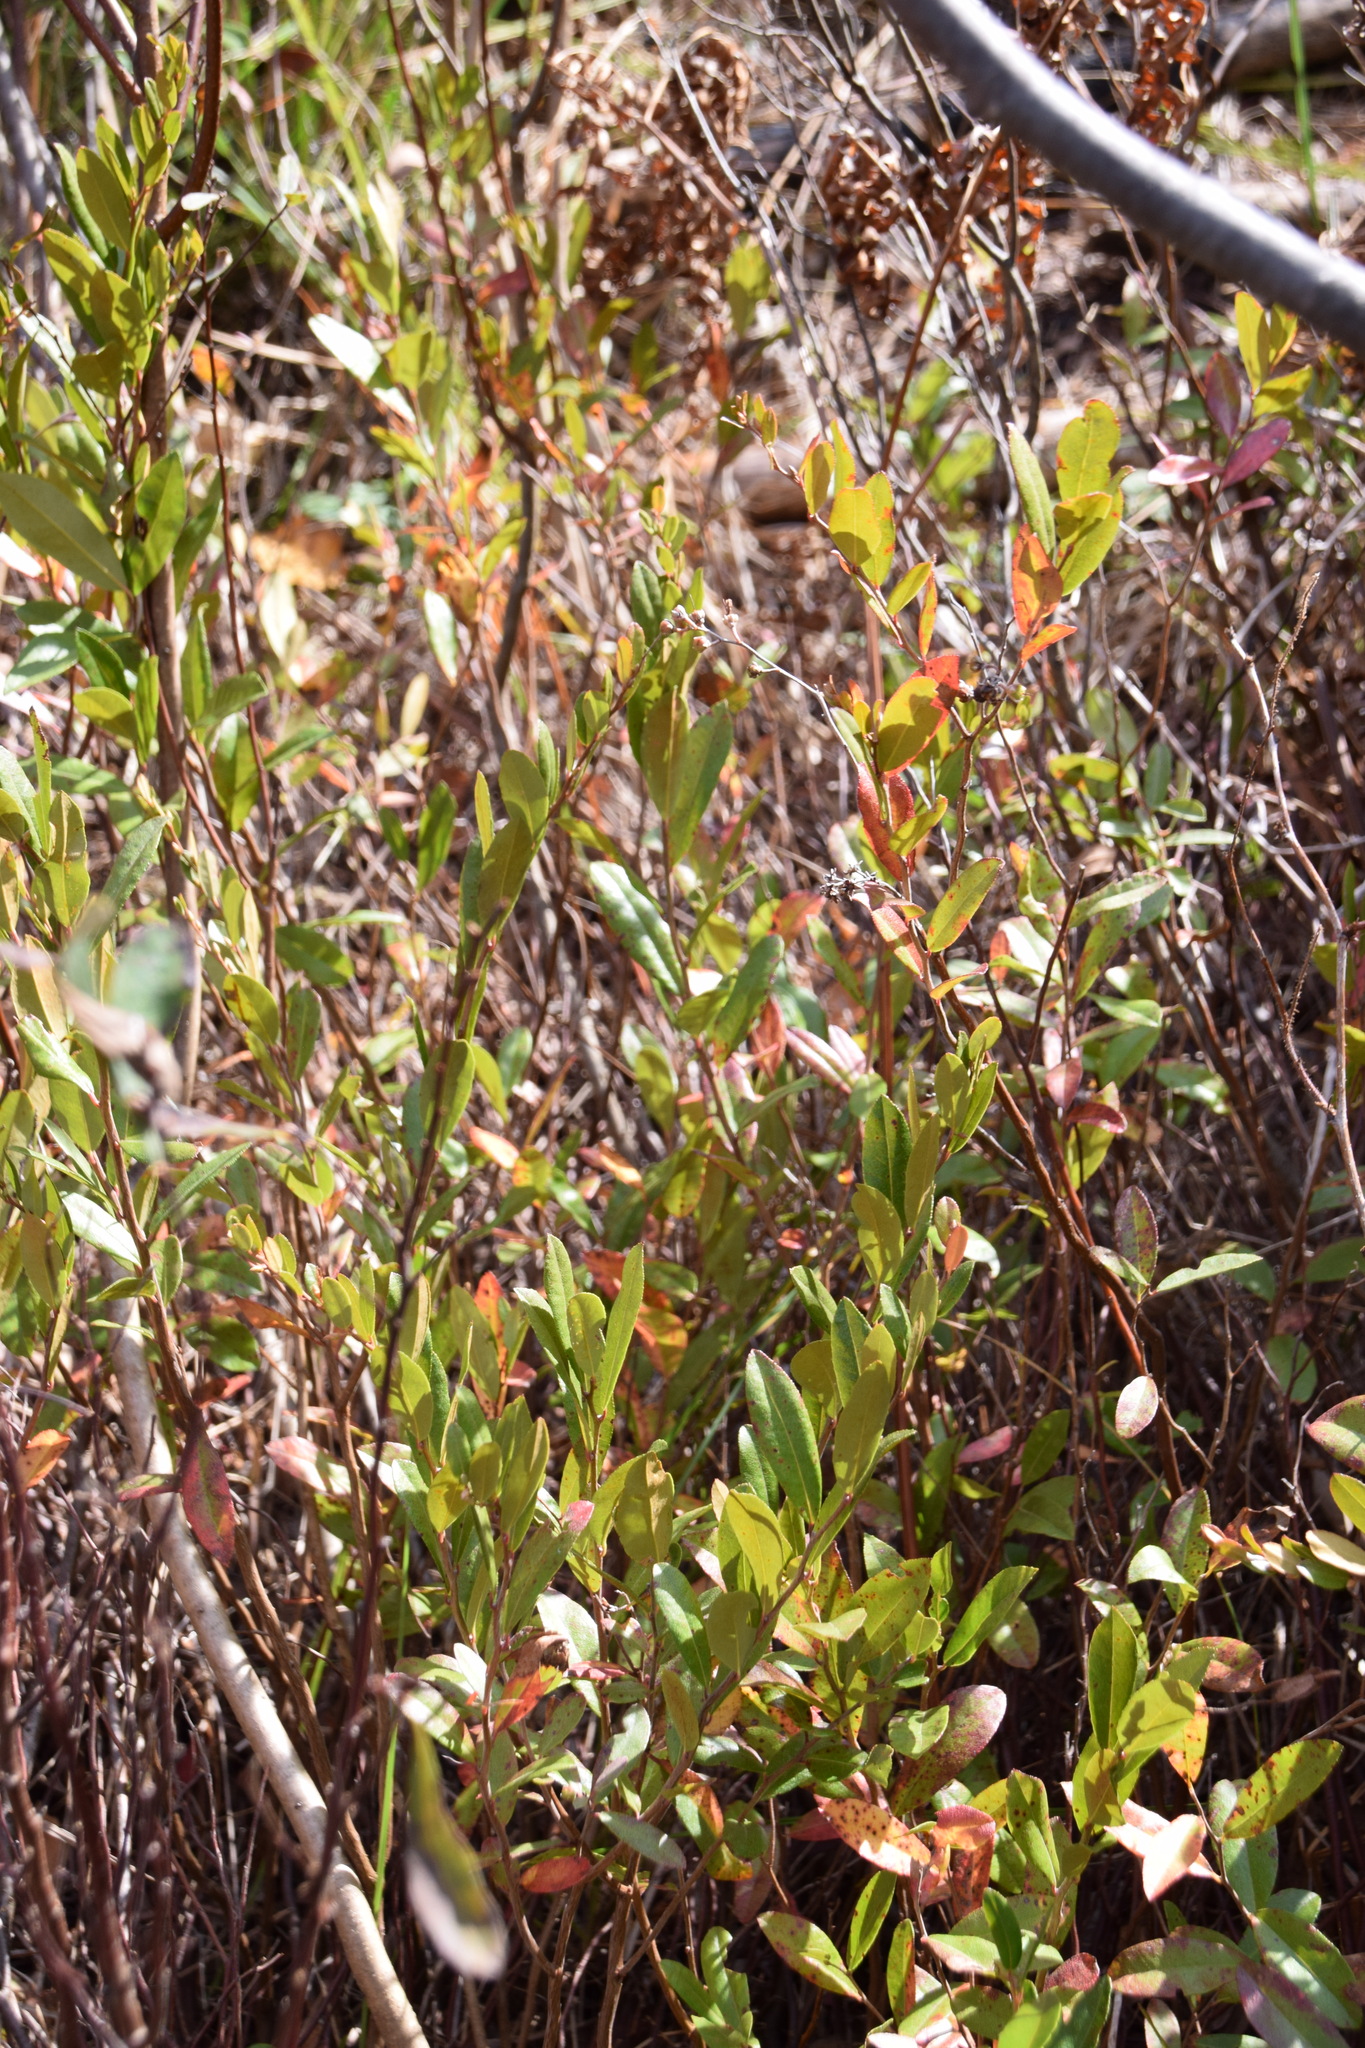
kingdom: Plantae
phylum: Tracheophyta
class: Magnoliopsida
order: Ericales
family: Ericaceae
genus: Chamaedaphne
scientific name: Chamaedaphne calyculata
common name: Leatherleaf
